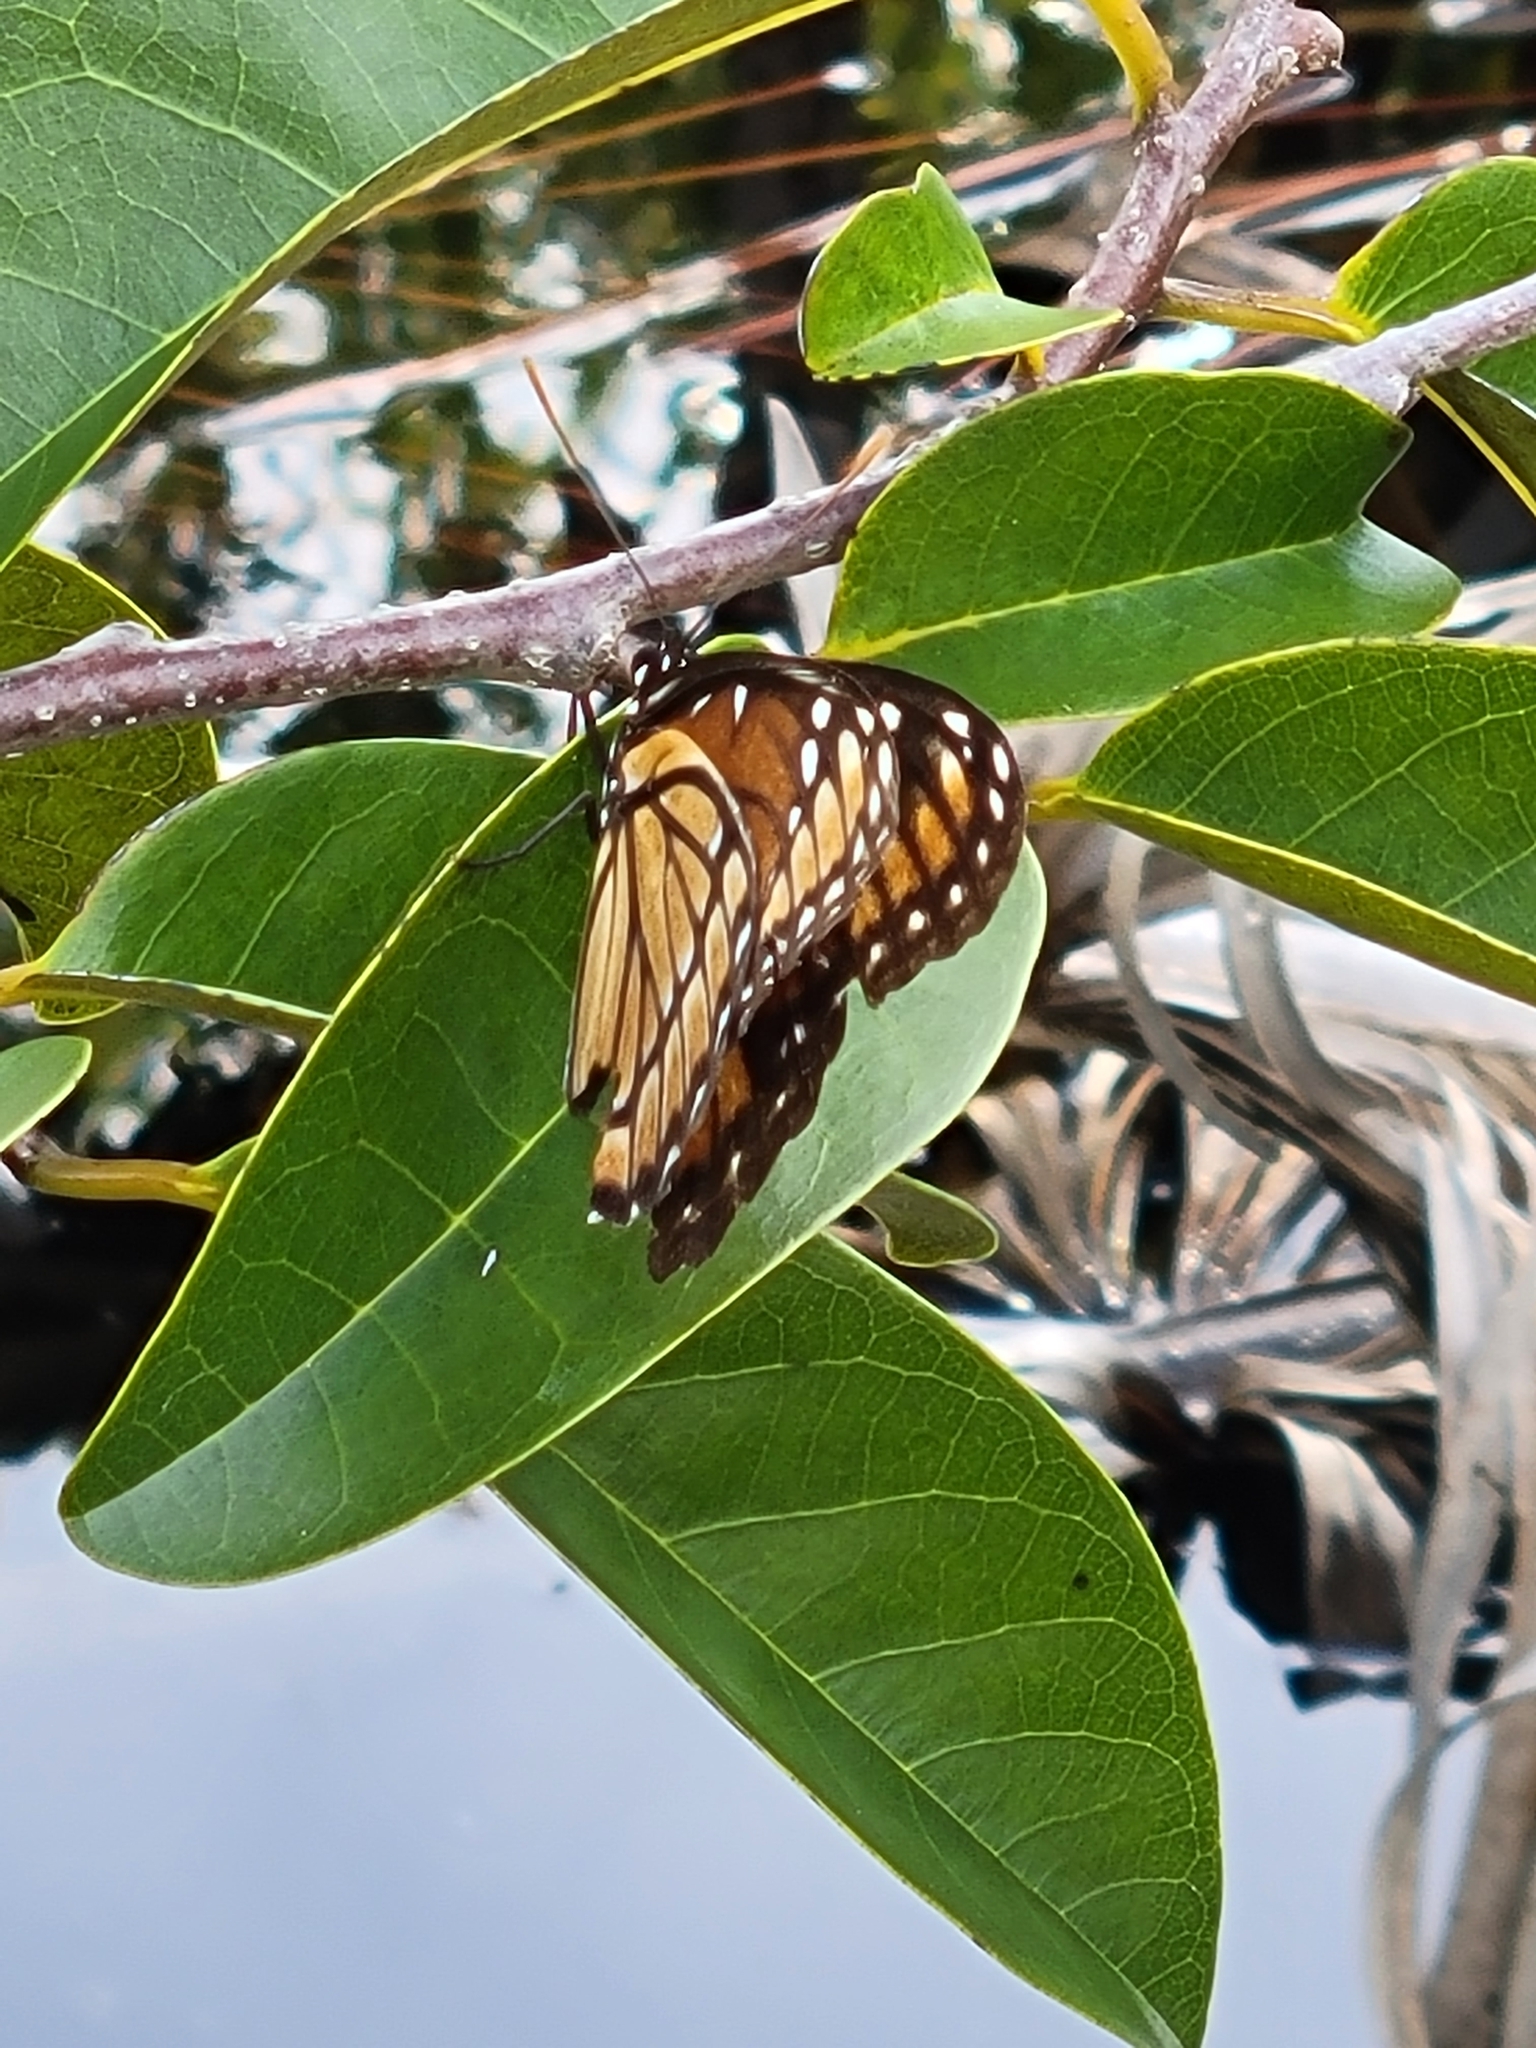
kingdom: Animalia
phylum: Arthropoda
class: Insecta
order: Lepidoptera
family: Nymphalidae
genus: Limenitis
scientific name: Limenitis archippus
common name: Viceroy
